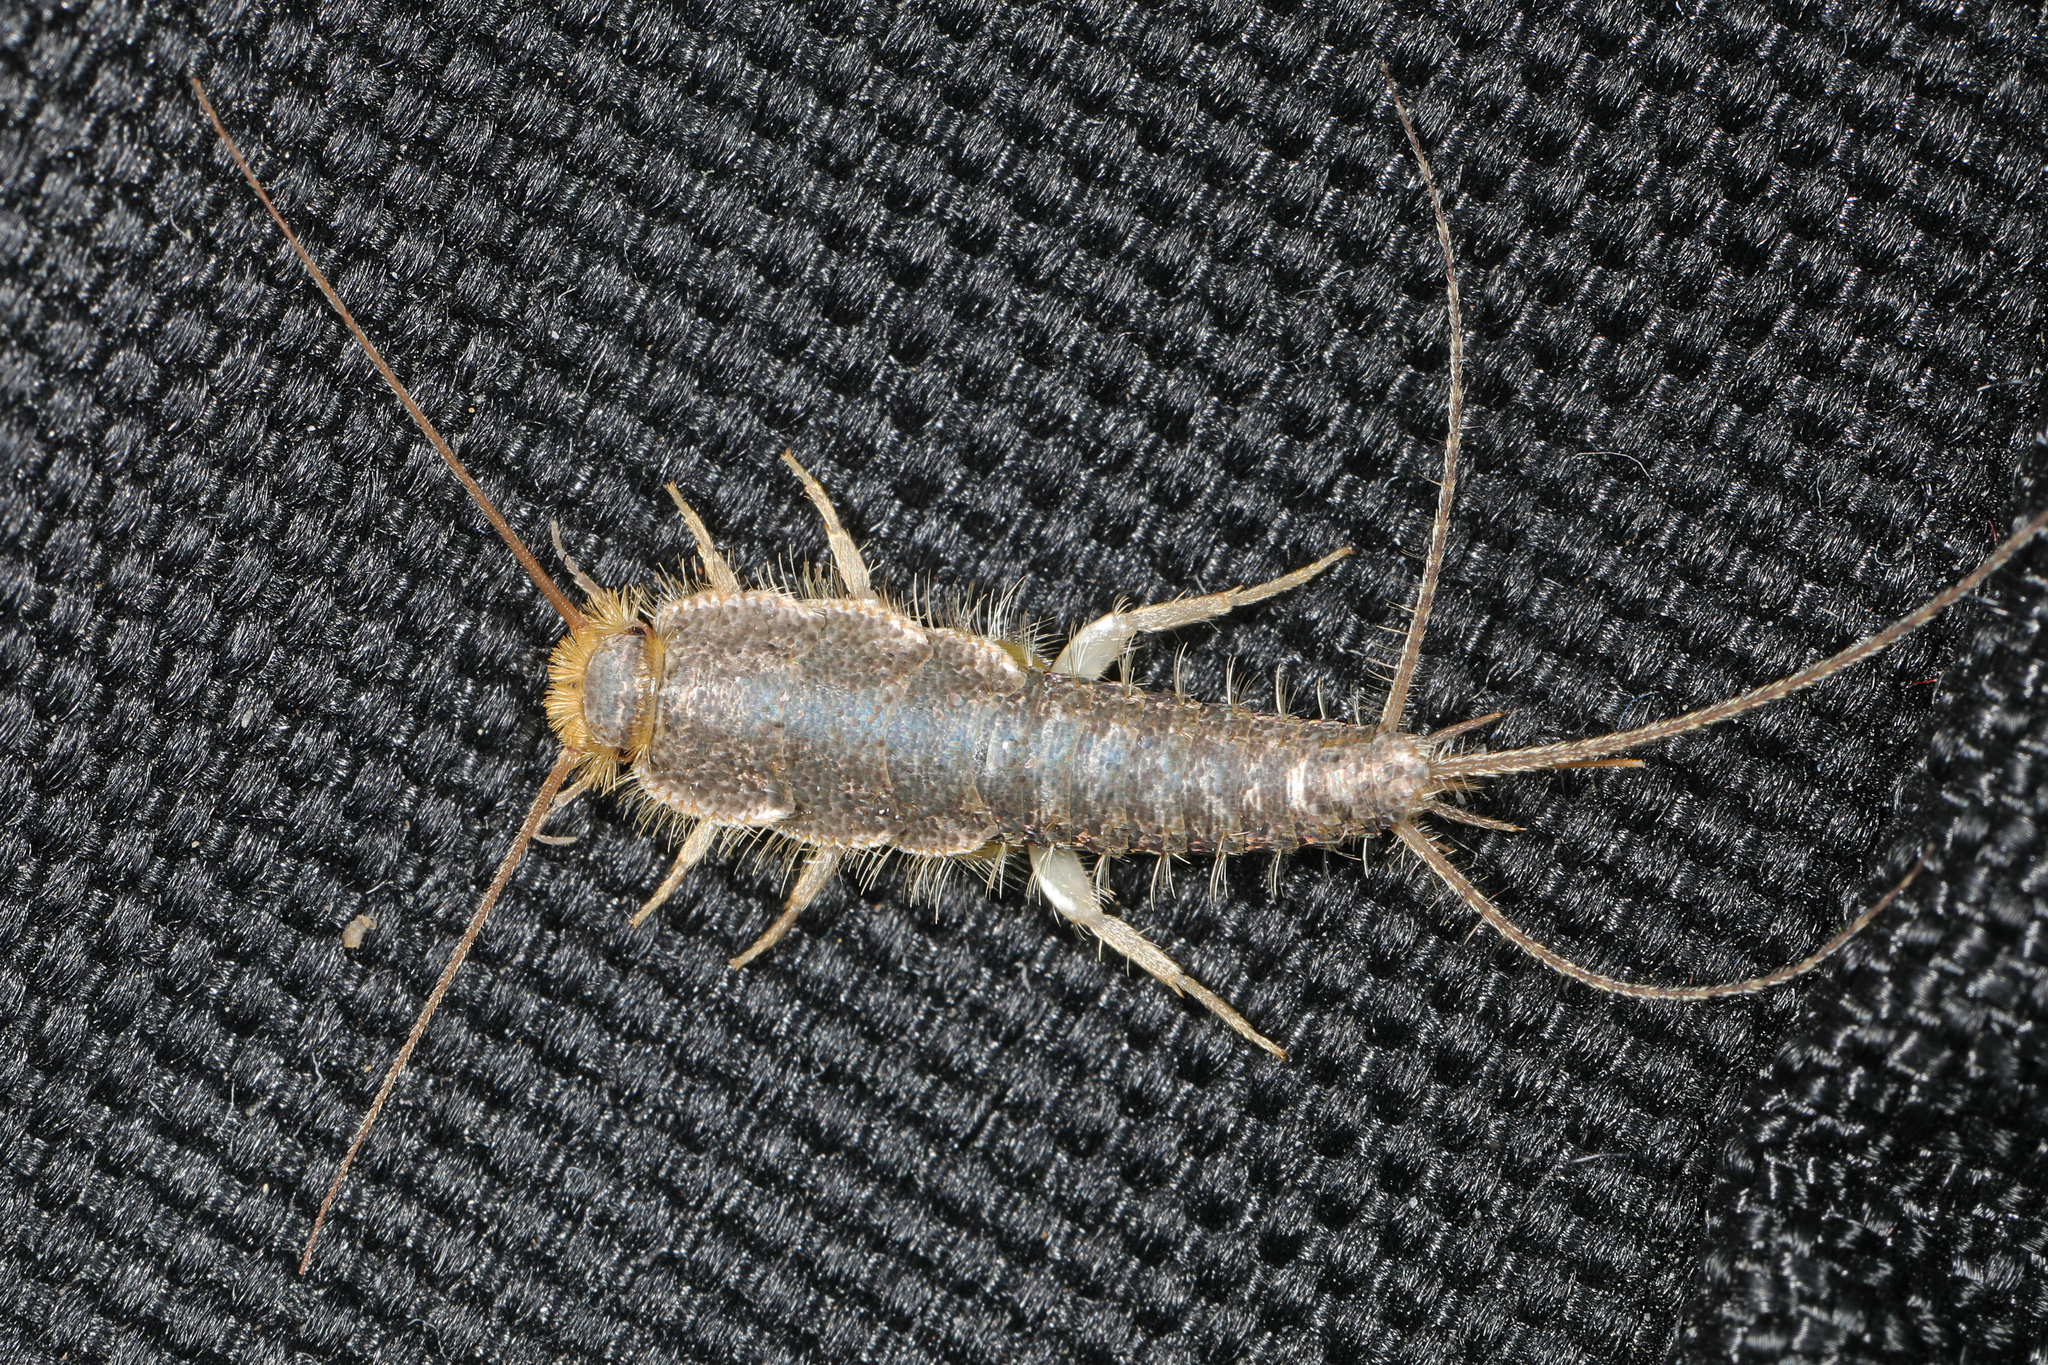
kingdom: Animalia
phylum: Arthropoda
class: Insecta
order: Zygentoma
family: Lepismatidae
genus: Ctenolepisma
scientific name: Ctenolepisma longicaudatum
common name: Silverfish
